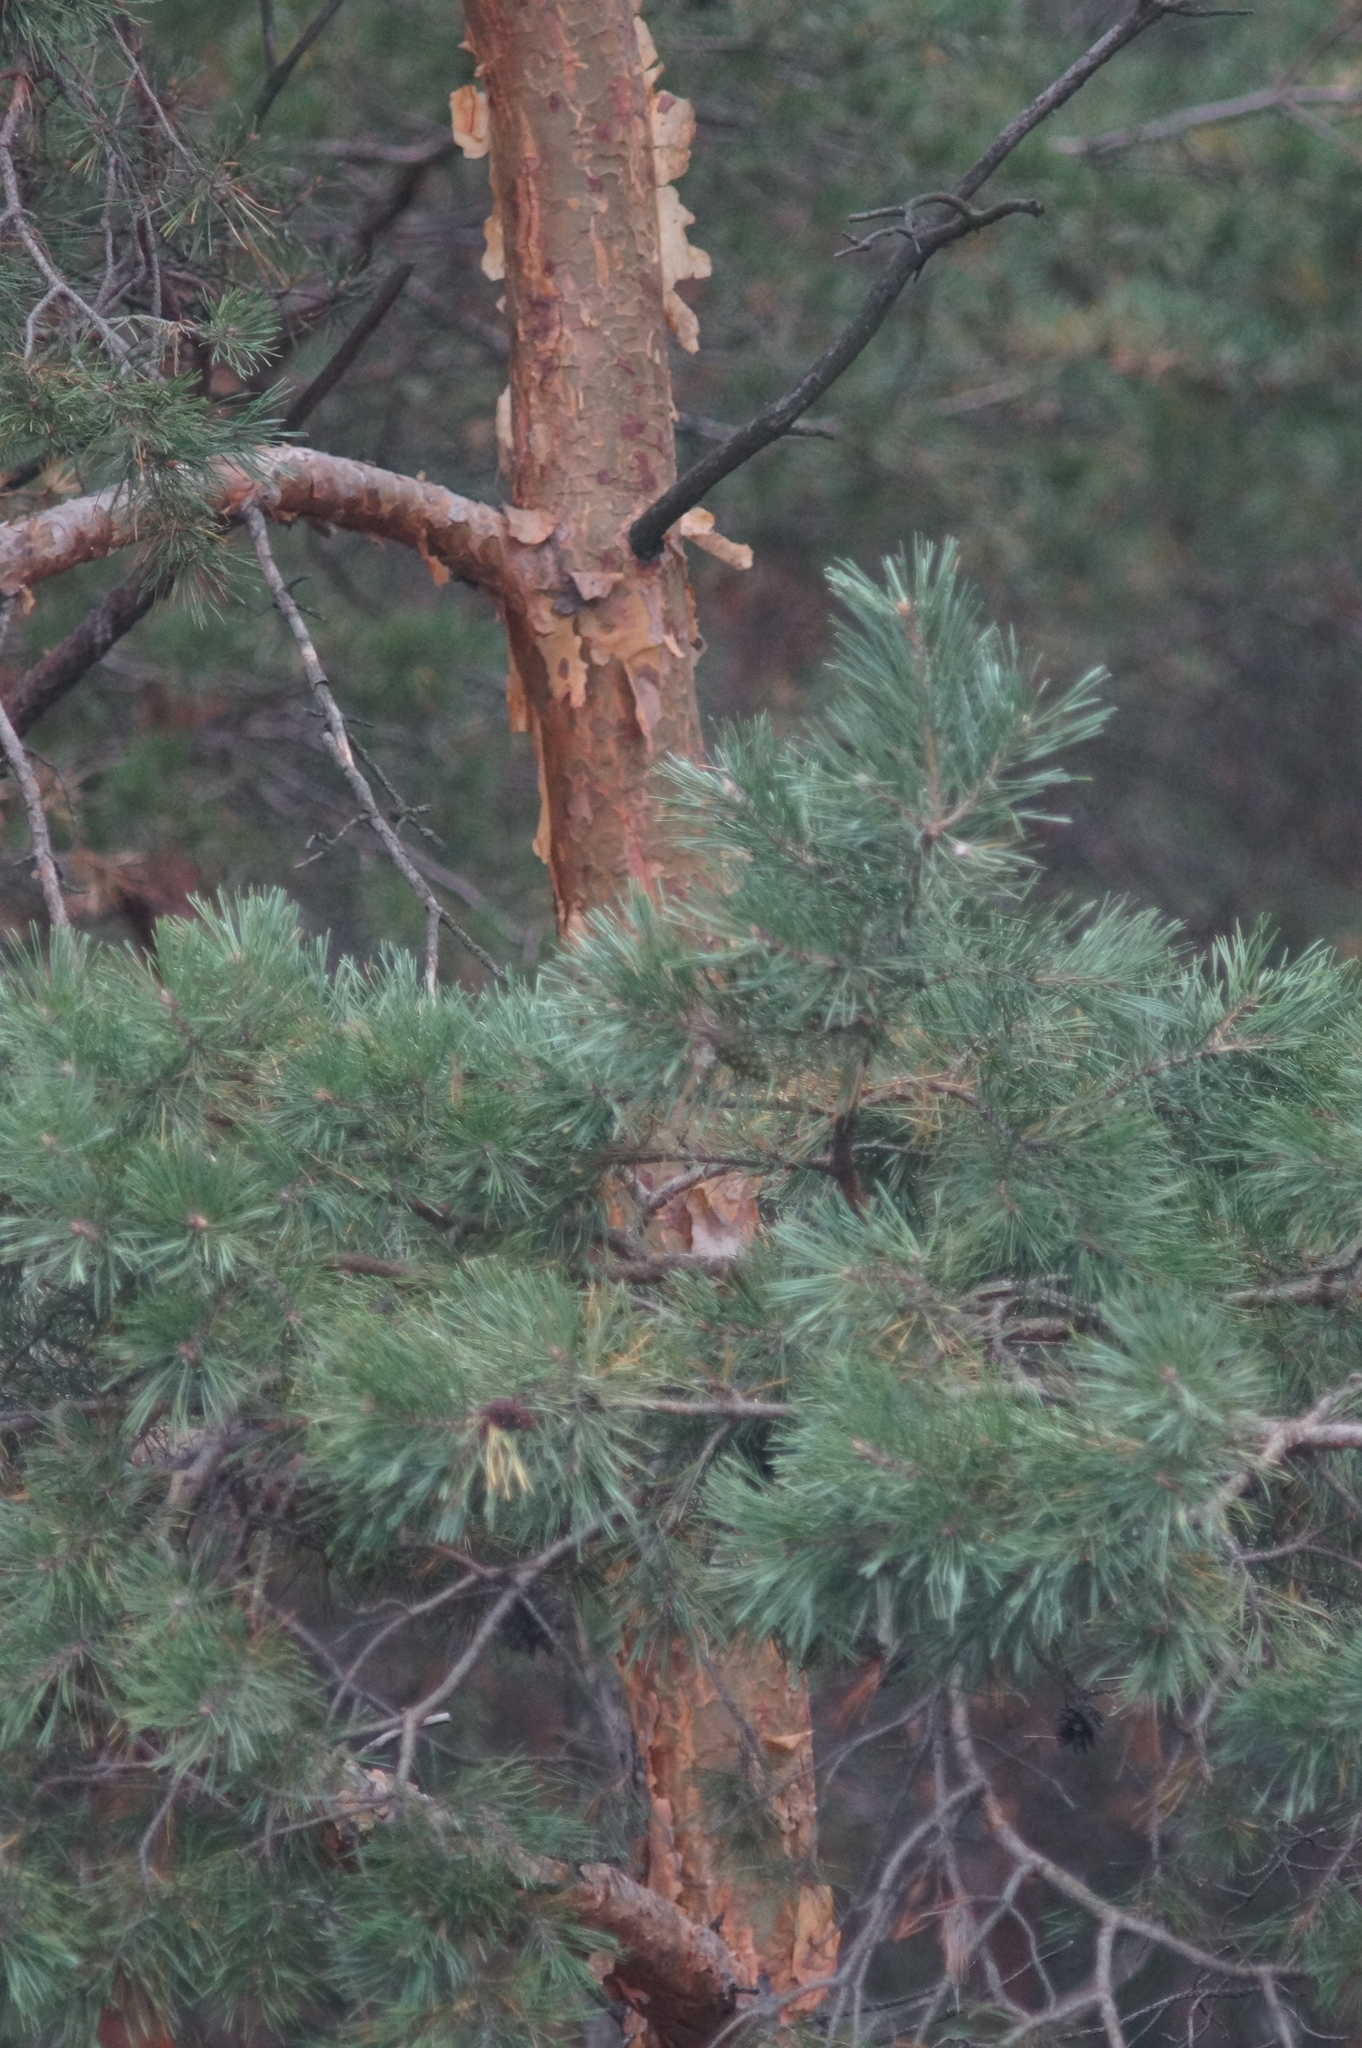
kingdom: Plantae
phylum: Tracheophyta
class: Pinopsida
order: Pinales
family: Pinaceae
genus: Pinus
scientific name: Pinus sylvestris
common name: Scots pine
